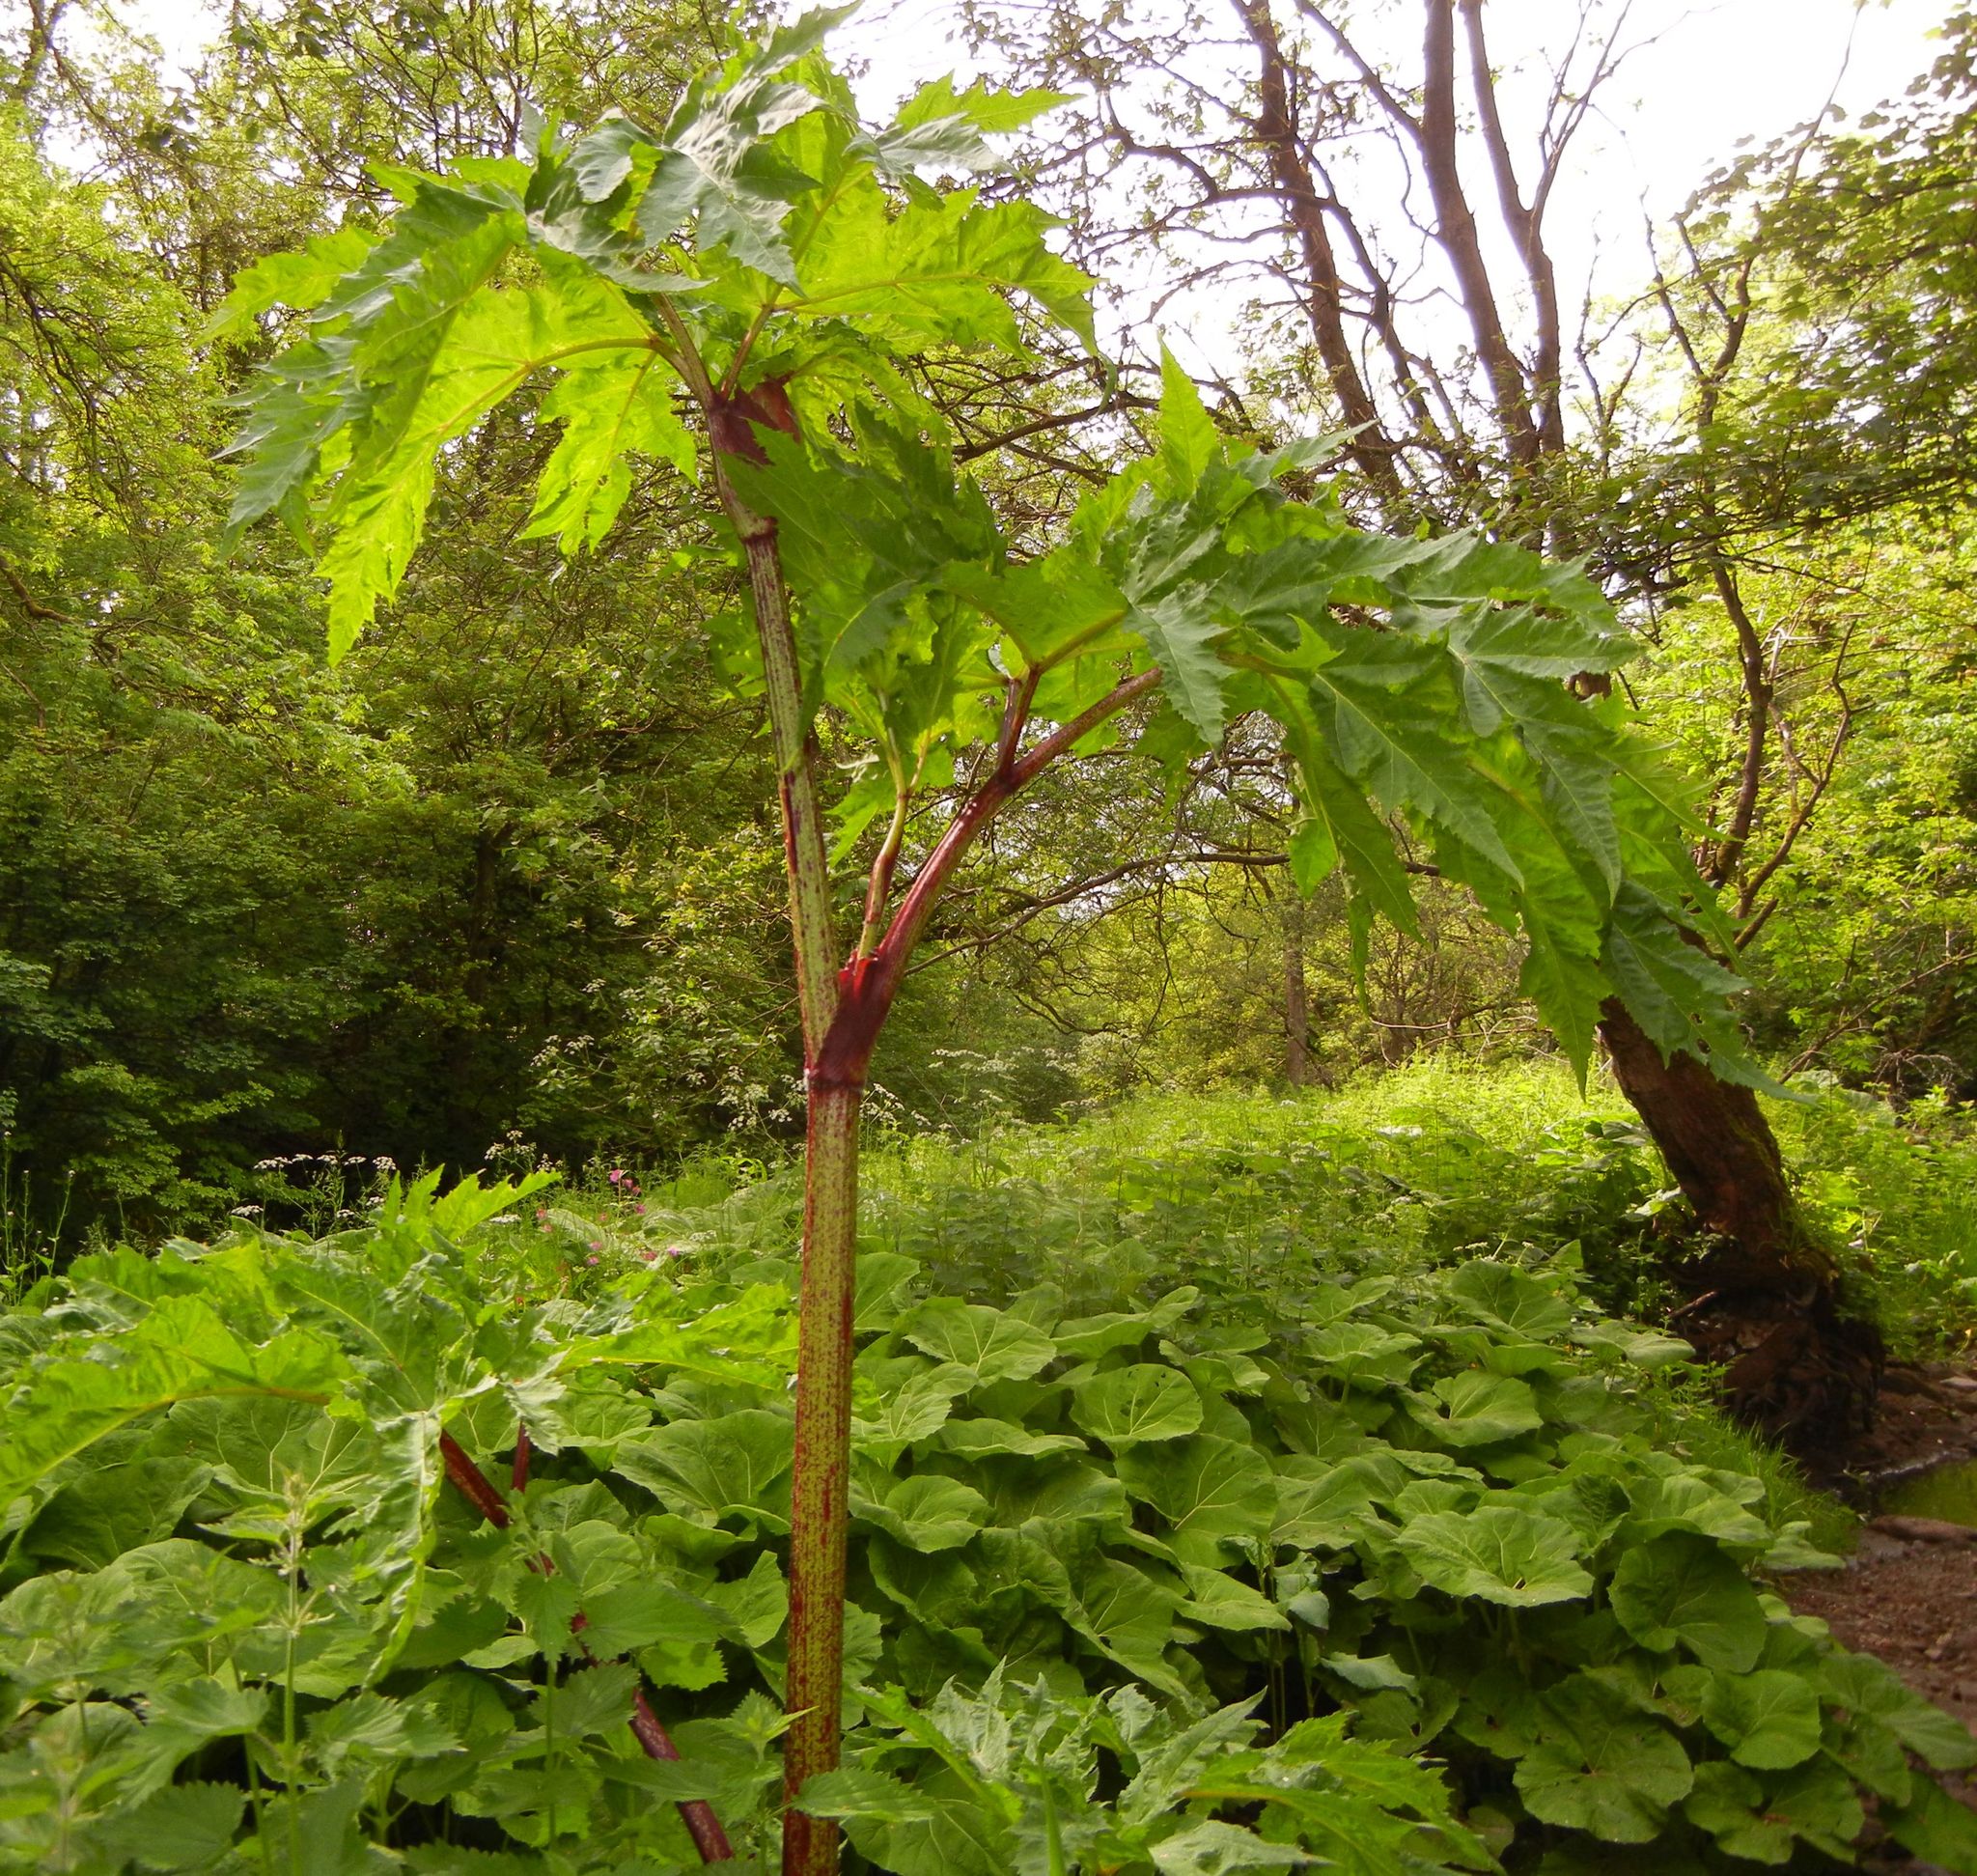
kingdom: Plantae
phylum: Tracheophyta
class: Magnoliopsida
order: Apiales
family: Apiaceae
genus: Heracleum
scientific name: Heracleum mantegazzianum
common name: Giant hogweed
